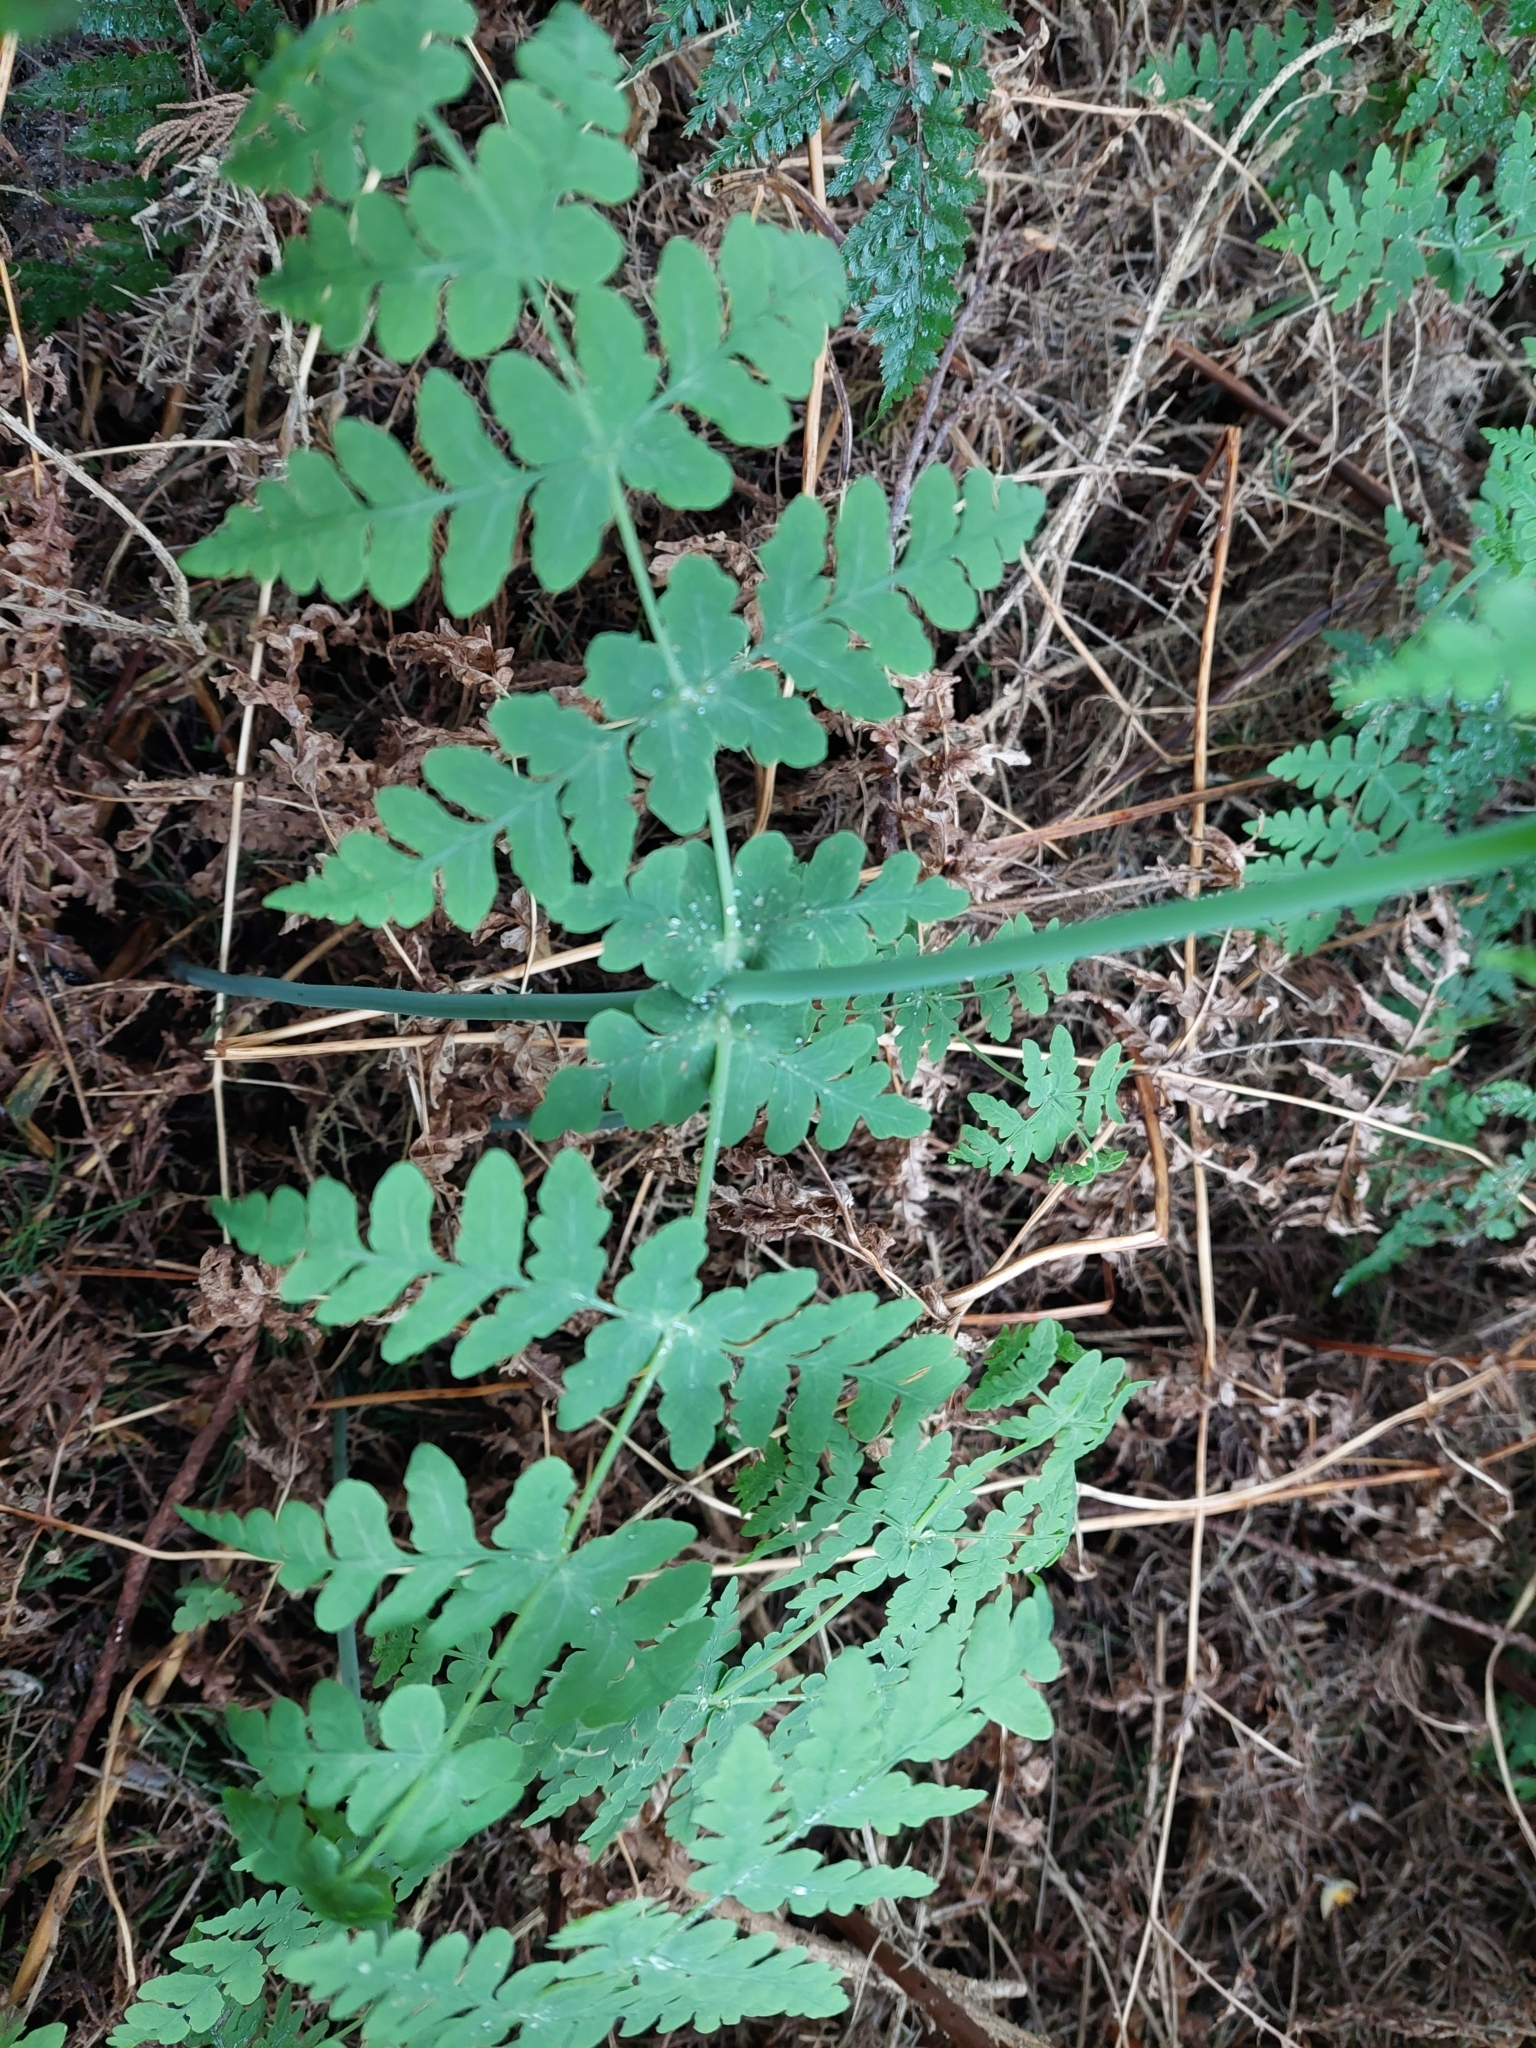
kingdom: Plantae
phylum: Tracheophyta
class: Polypodiopsida
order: Polypodiales
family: Dennstaedtiaceae
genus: Histiopteris
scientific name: Histiopteris incisa
